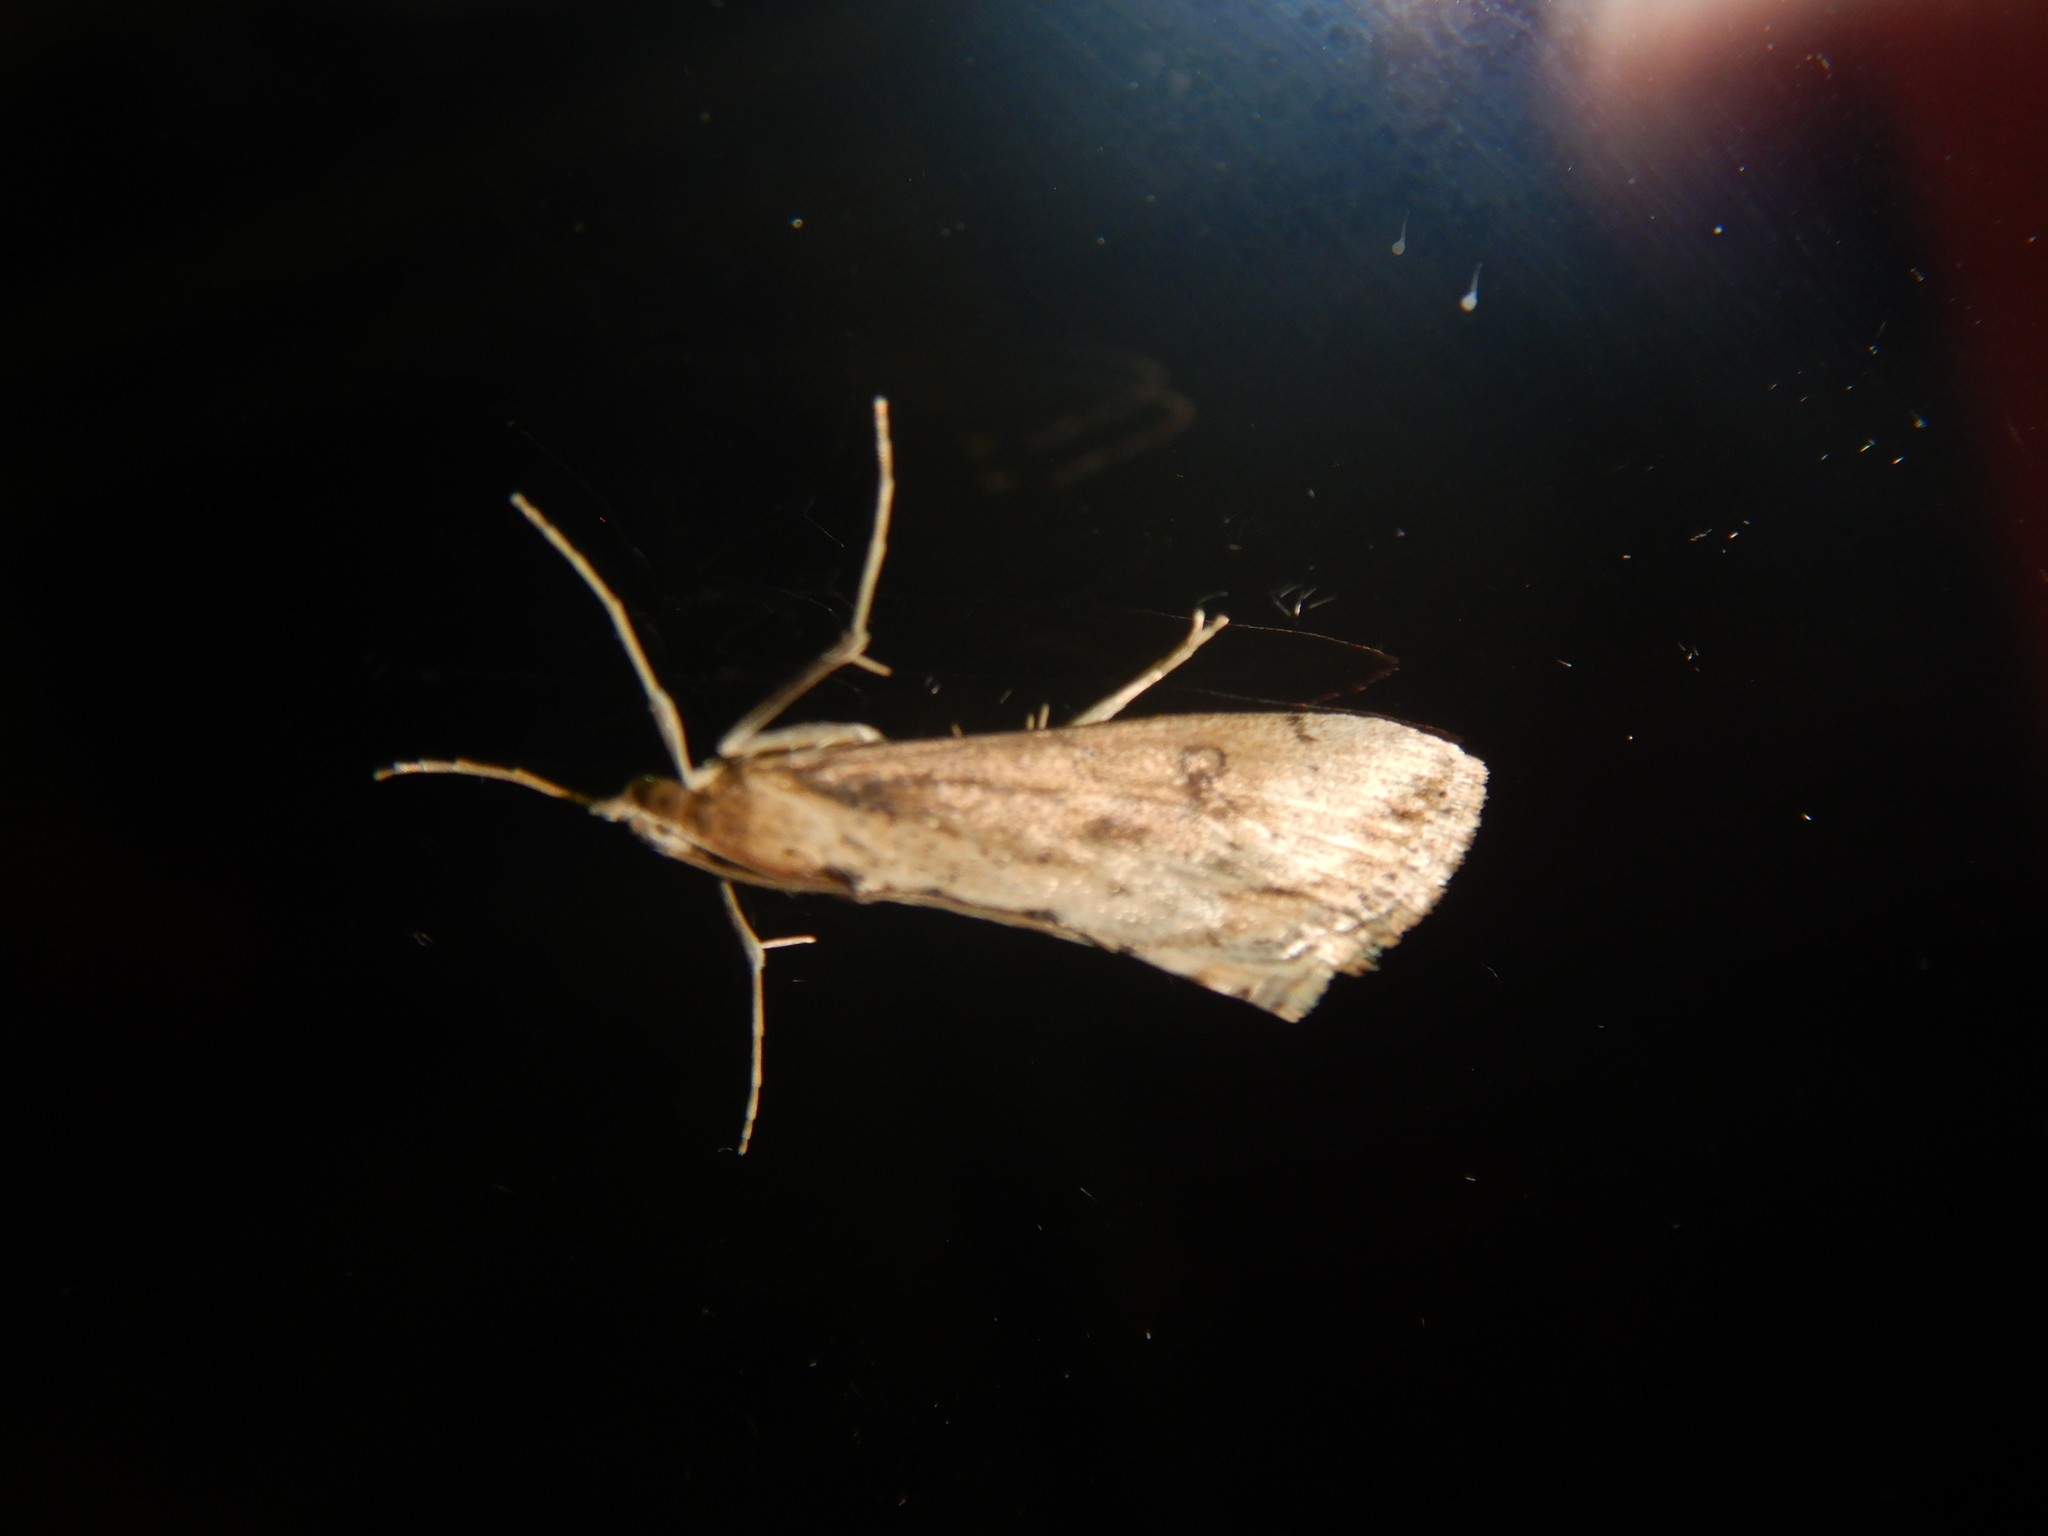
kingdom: Animalia
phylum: Arthropoda
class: Insecta
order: Lepidoptera
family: Crambidae
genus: Evergestis
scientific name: Evergestis isatidalis
